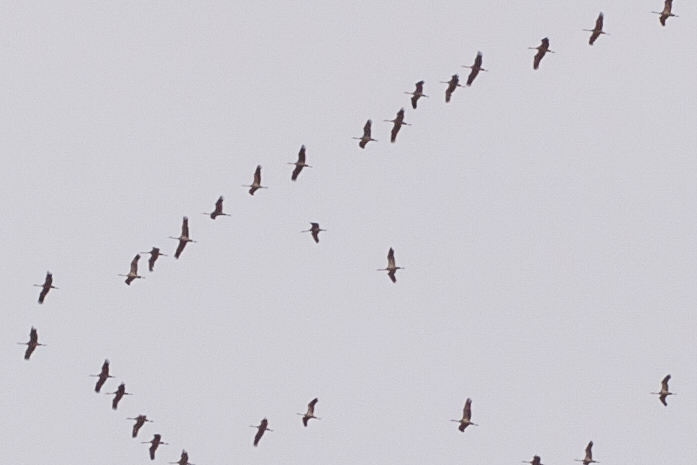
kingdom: Animalia
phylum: Chordata
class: Aves
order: Gruiformes
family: Gruidae
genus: Grus
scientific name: Grus canadensis
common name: Sandhill crane
